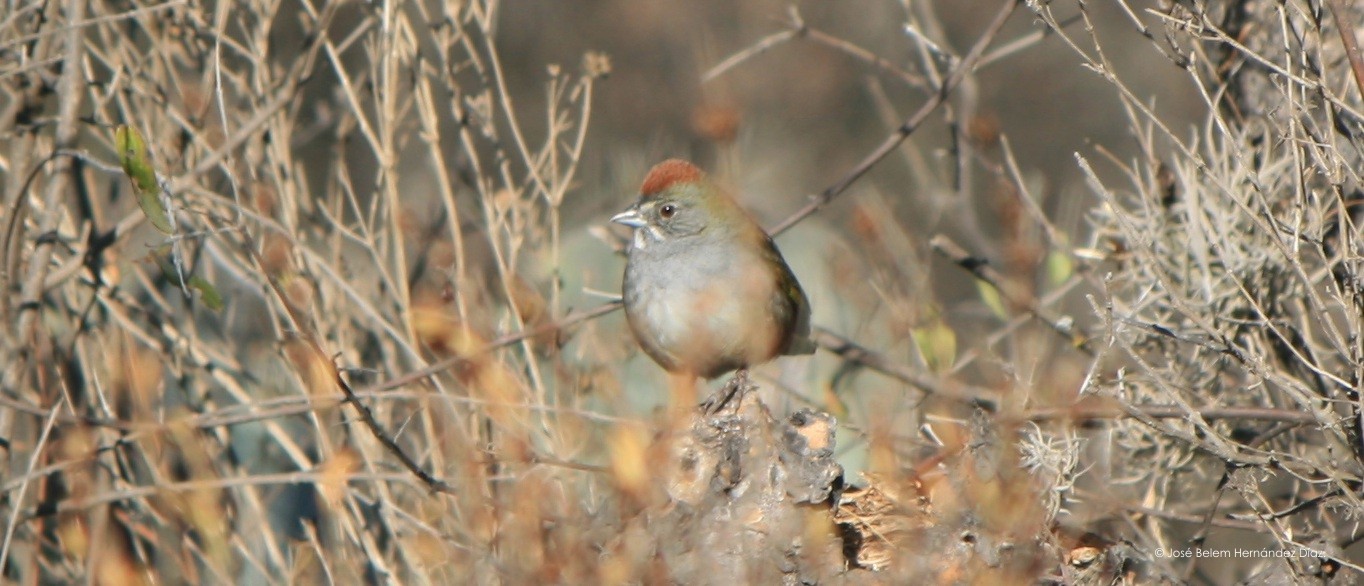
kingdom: Animalia
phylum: Chordata
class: Aves
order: Passeriformes
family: Passerellidae
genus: Pipilo
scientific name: Pipilo chlorurus
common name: Green-tailed towhee
